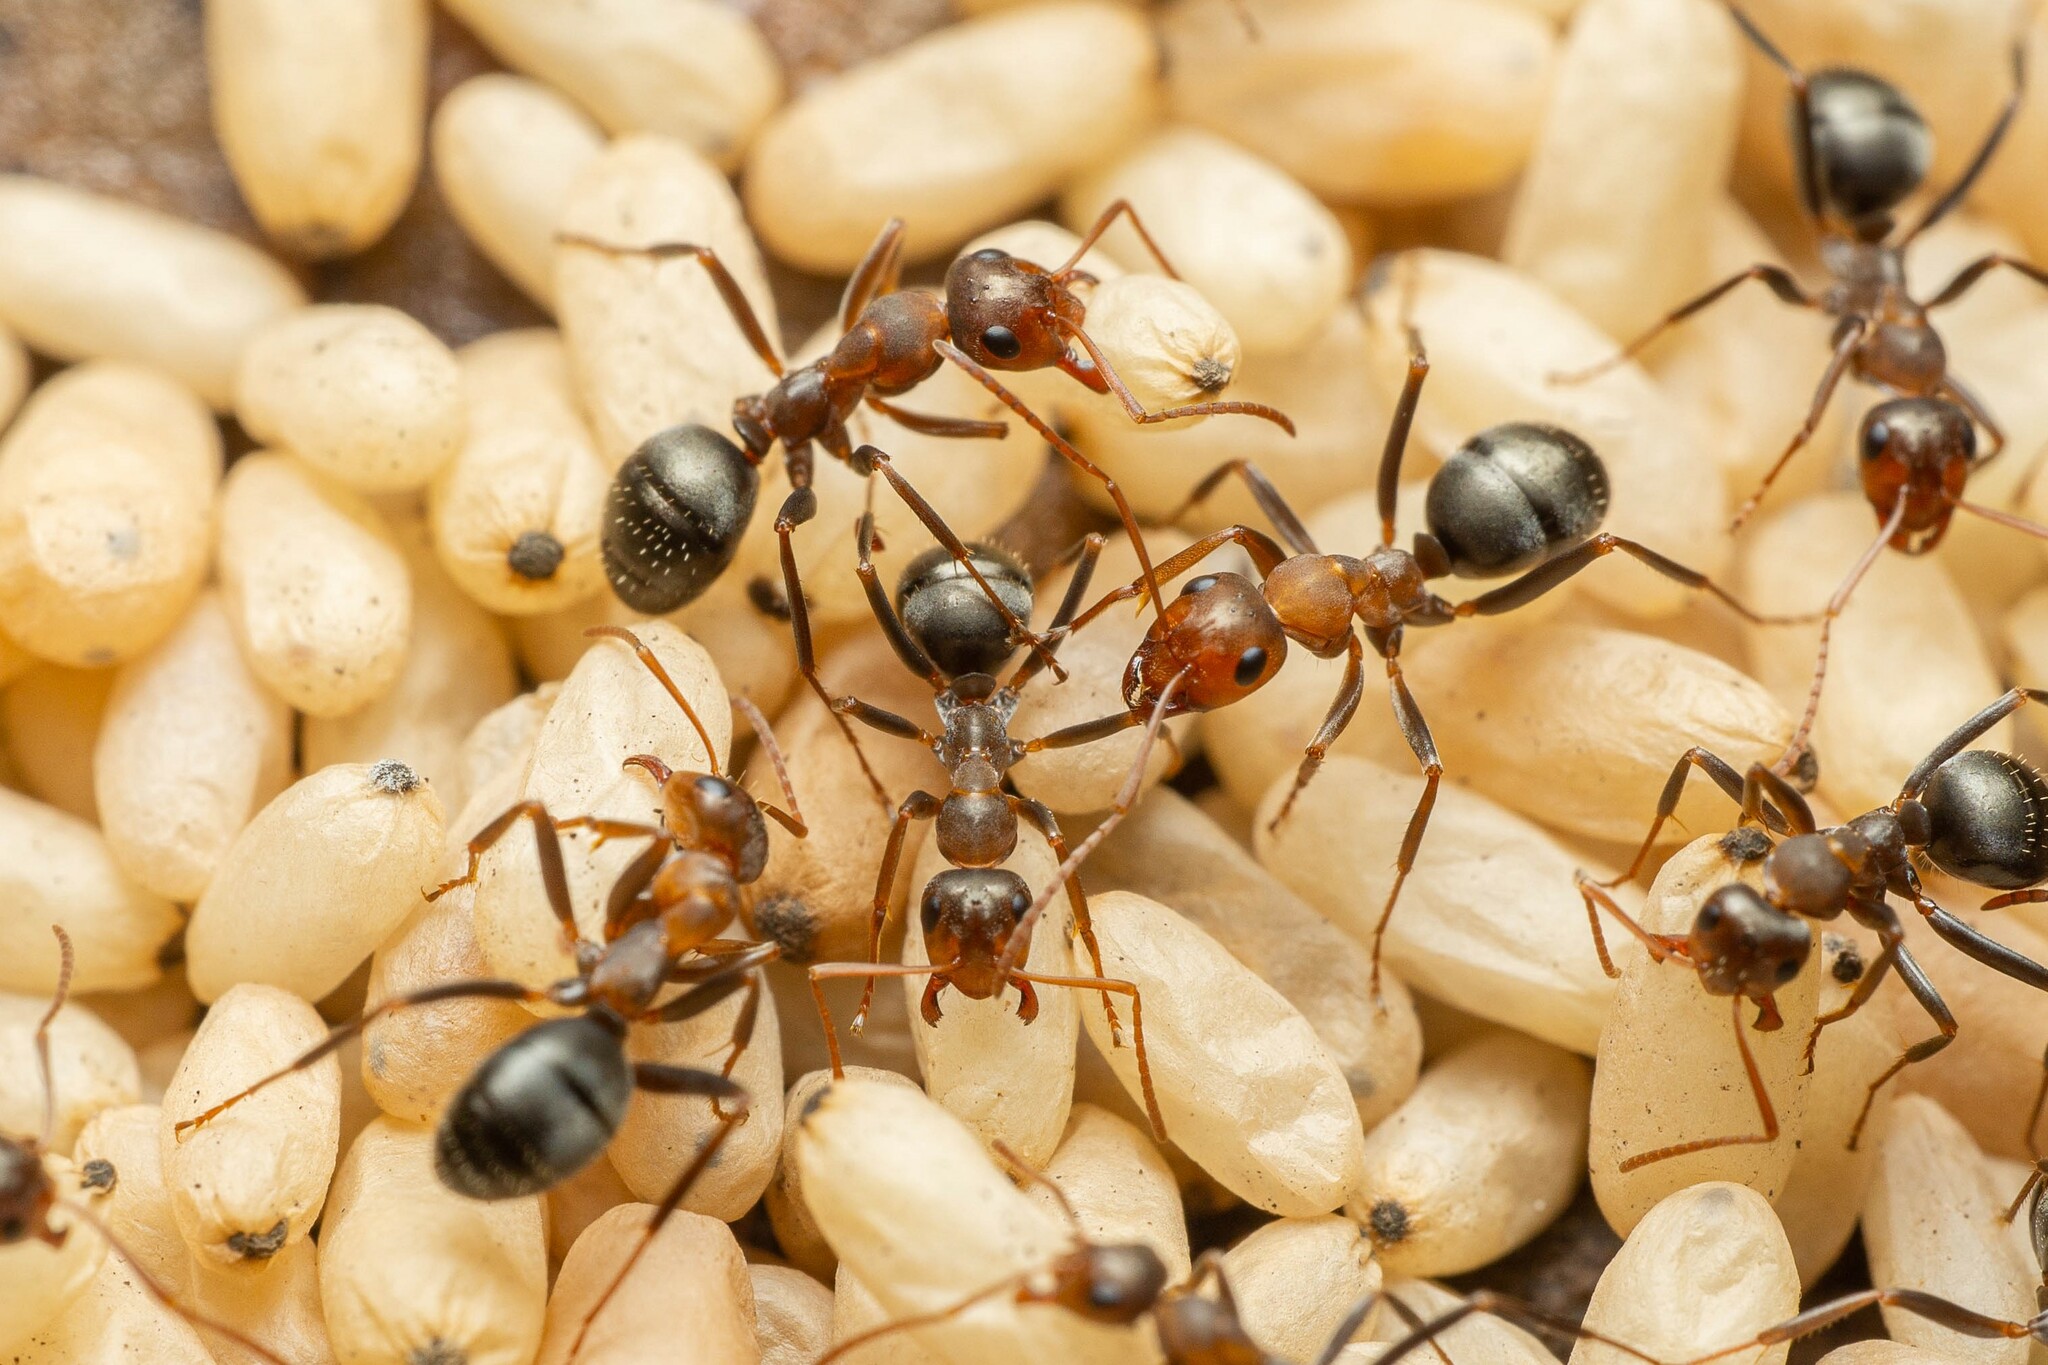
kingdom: Animalia
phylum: Arthropoda
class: Insecta
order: Hymenoptera
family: Formicidae
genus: Formica
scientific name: Formica foreliana
